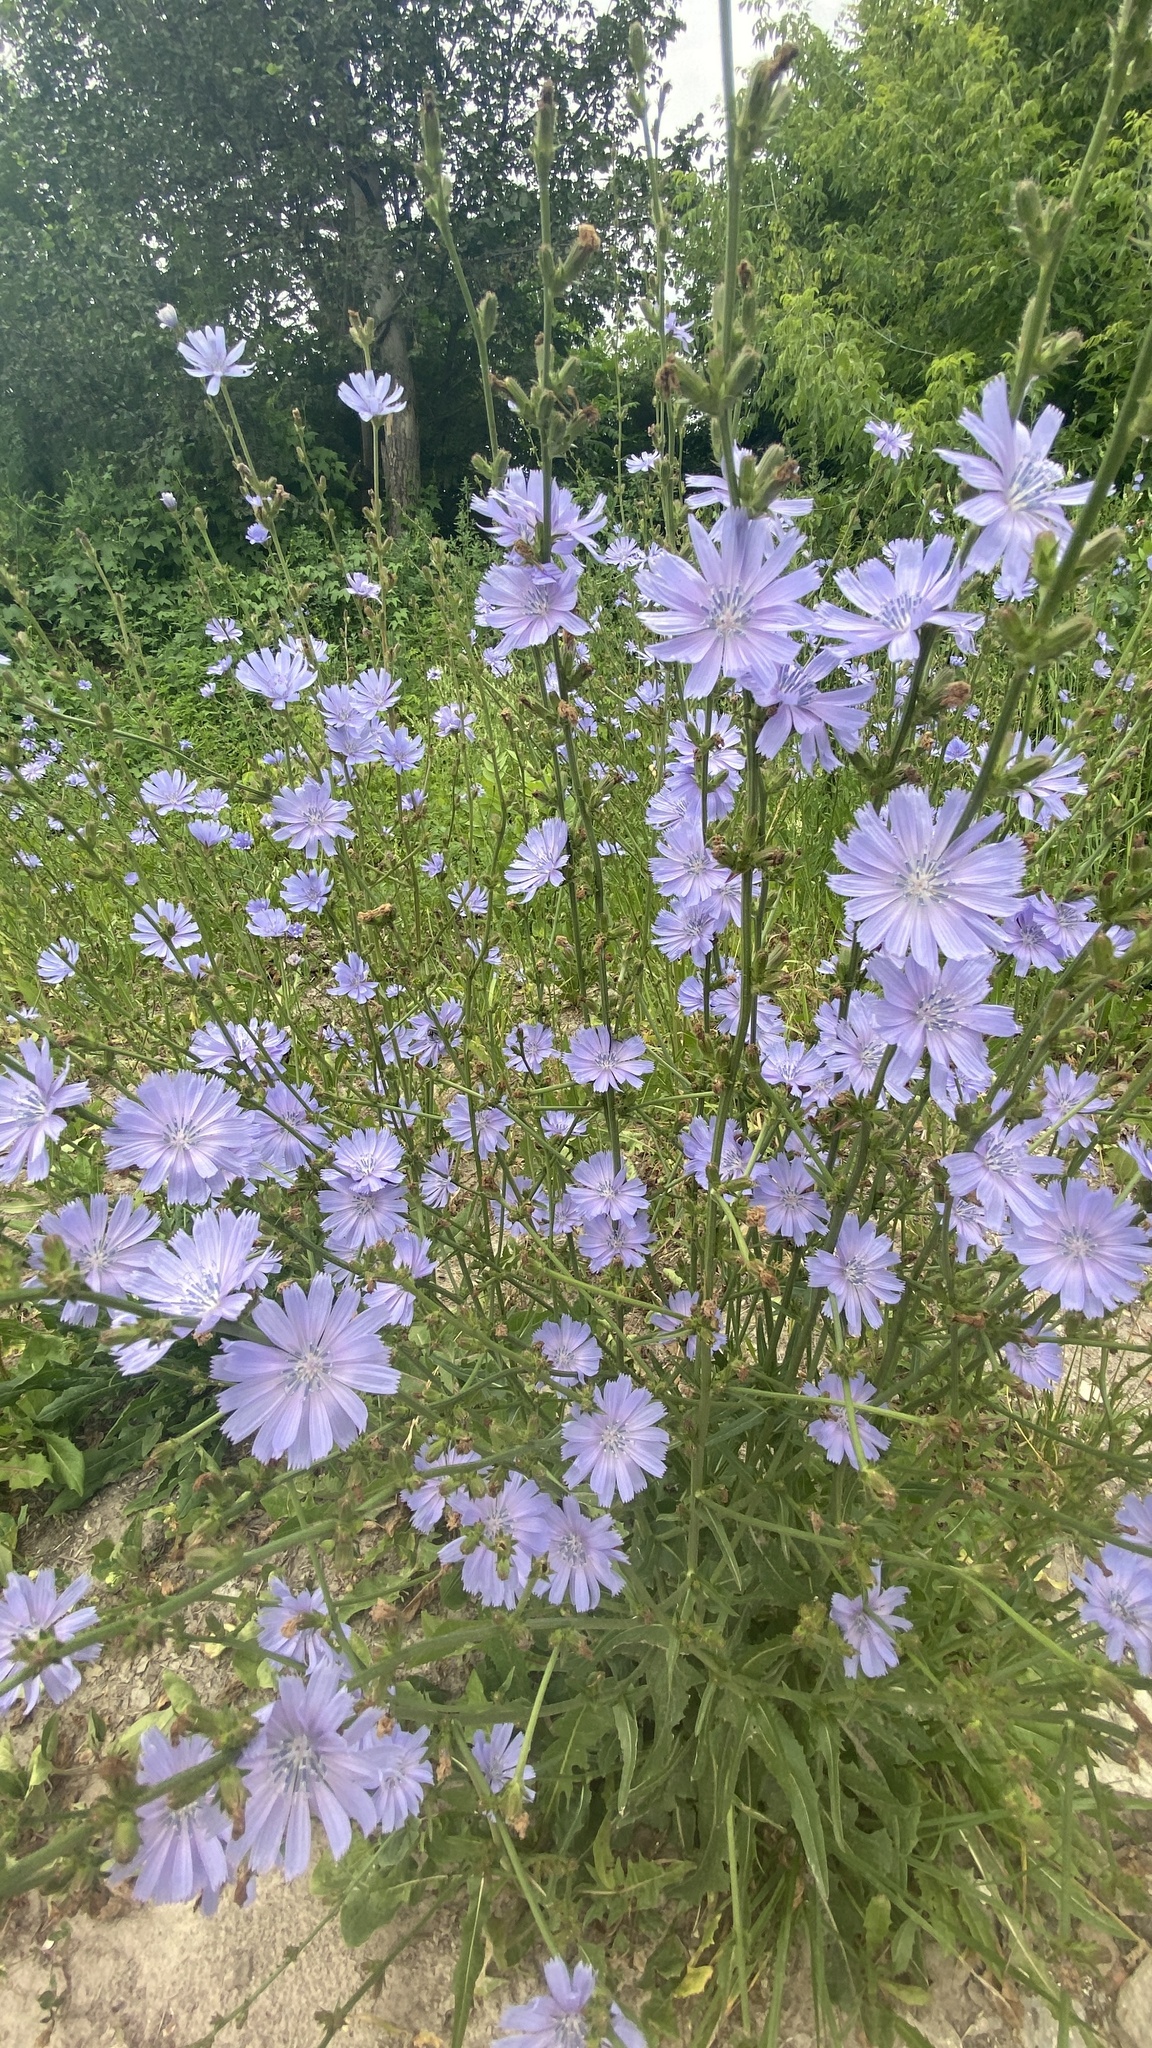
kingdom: Plantae
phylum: Tracheophyta
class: Magnoliopsida
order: Asterales
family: Asteraceae
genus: Cichorium
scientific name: Cichorium intybus
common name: Chicory
